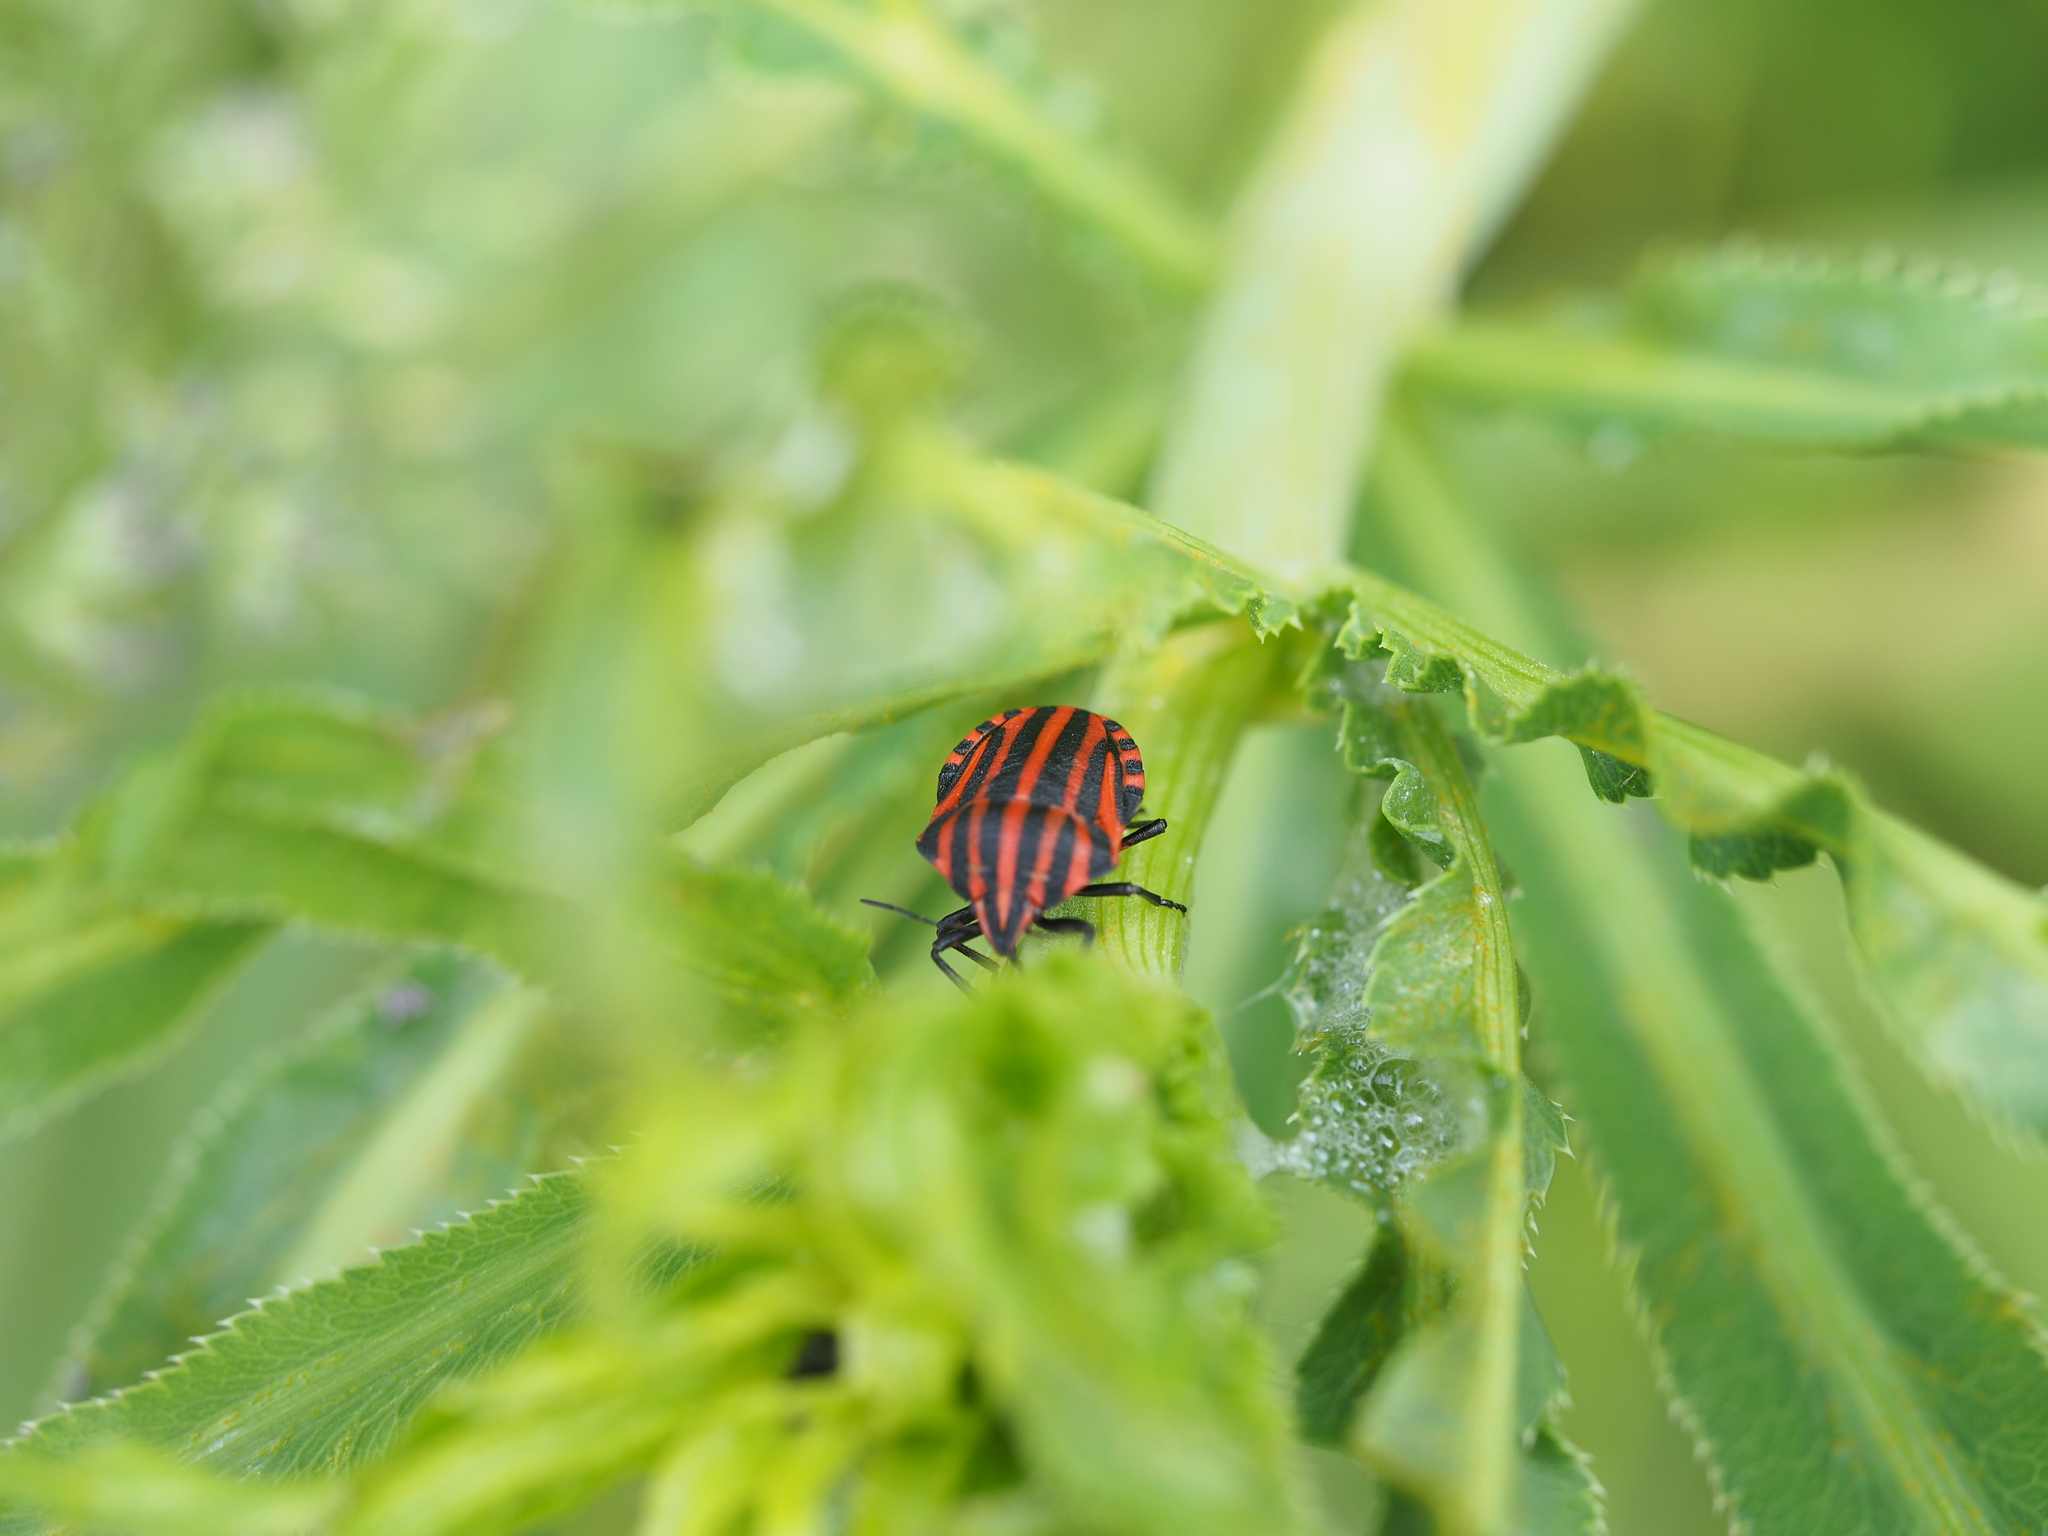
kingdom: Animalia
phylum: Arthropoda
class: Insecta
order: Hemiptera
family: Pentatomidae
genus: Graphosoma
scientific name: Graphosoma italicum
